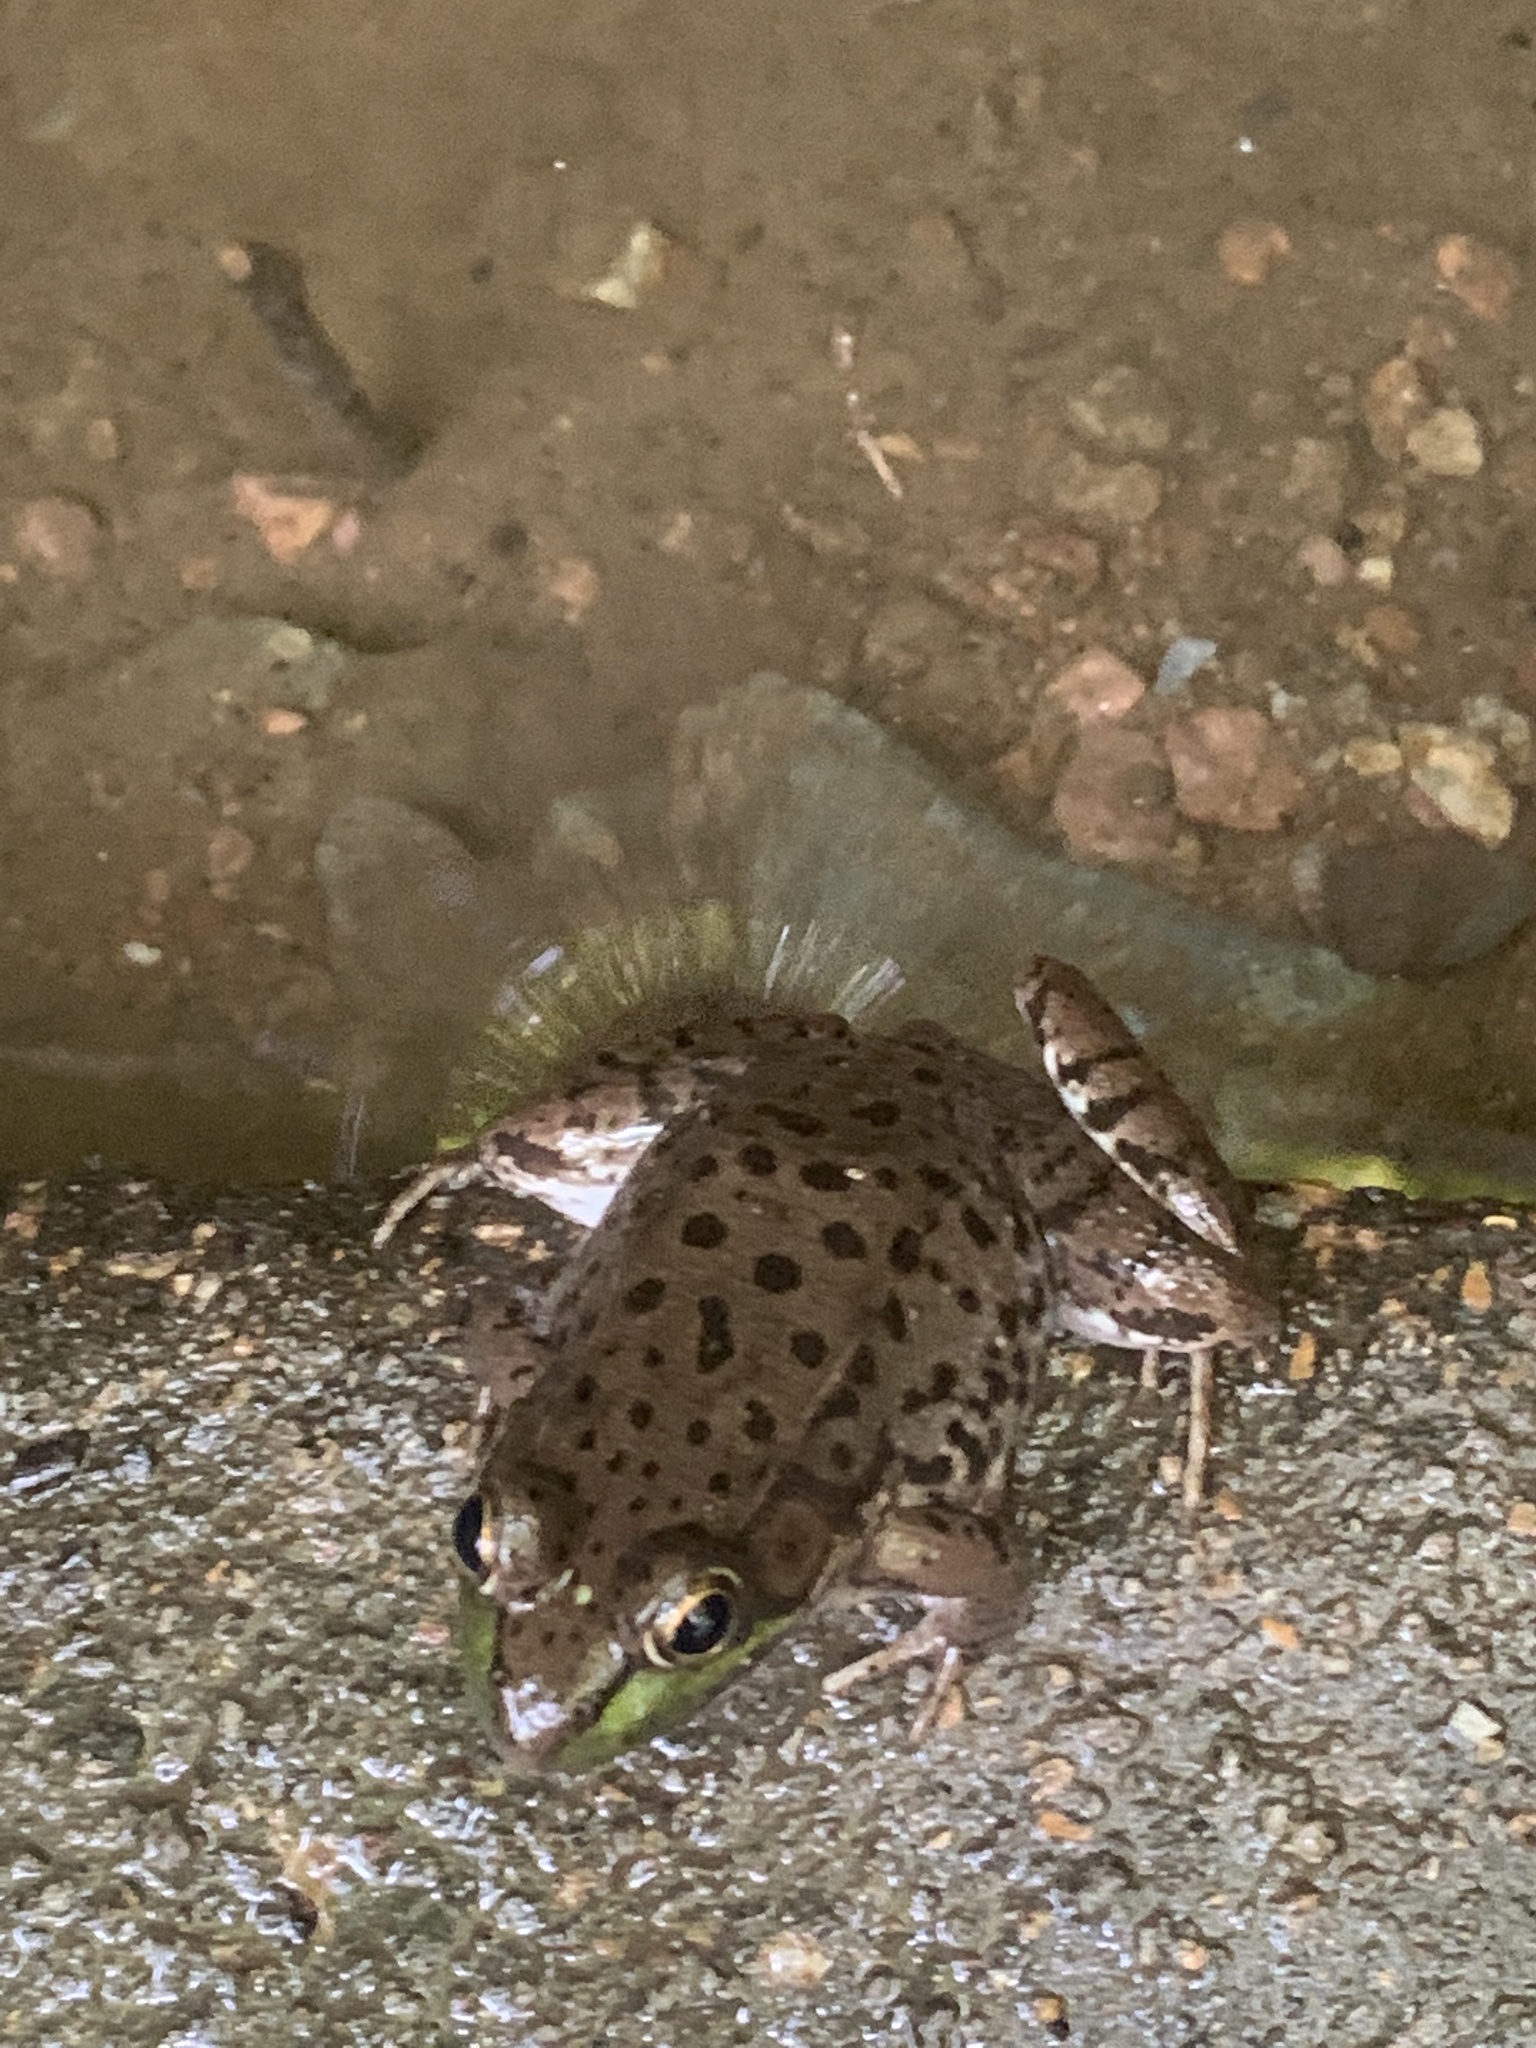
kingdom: Animalia
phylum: Chordata
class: Amphibia
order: Anura
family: Ranidae
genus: Lithobates
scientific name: Lithobates clamitans
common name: Green frog
